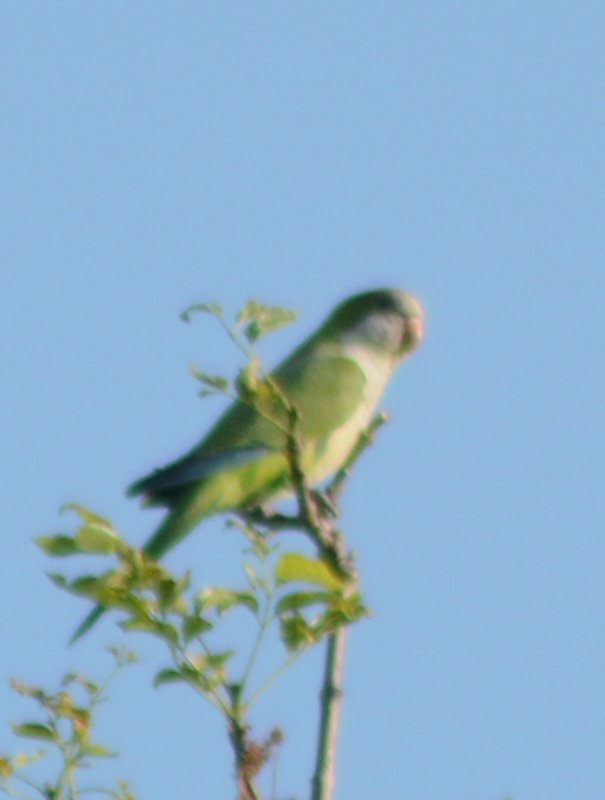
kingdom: Animalia
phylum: Chordata
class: Aves
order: Psittaciformes
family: Psittacidae
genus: Myiopsitta
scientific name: Myiopsitta monachus
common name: Monk parakeet
